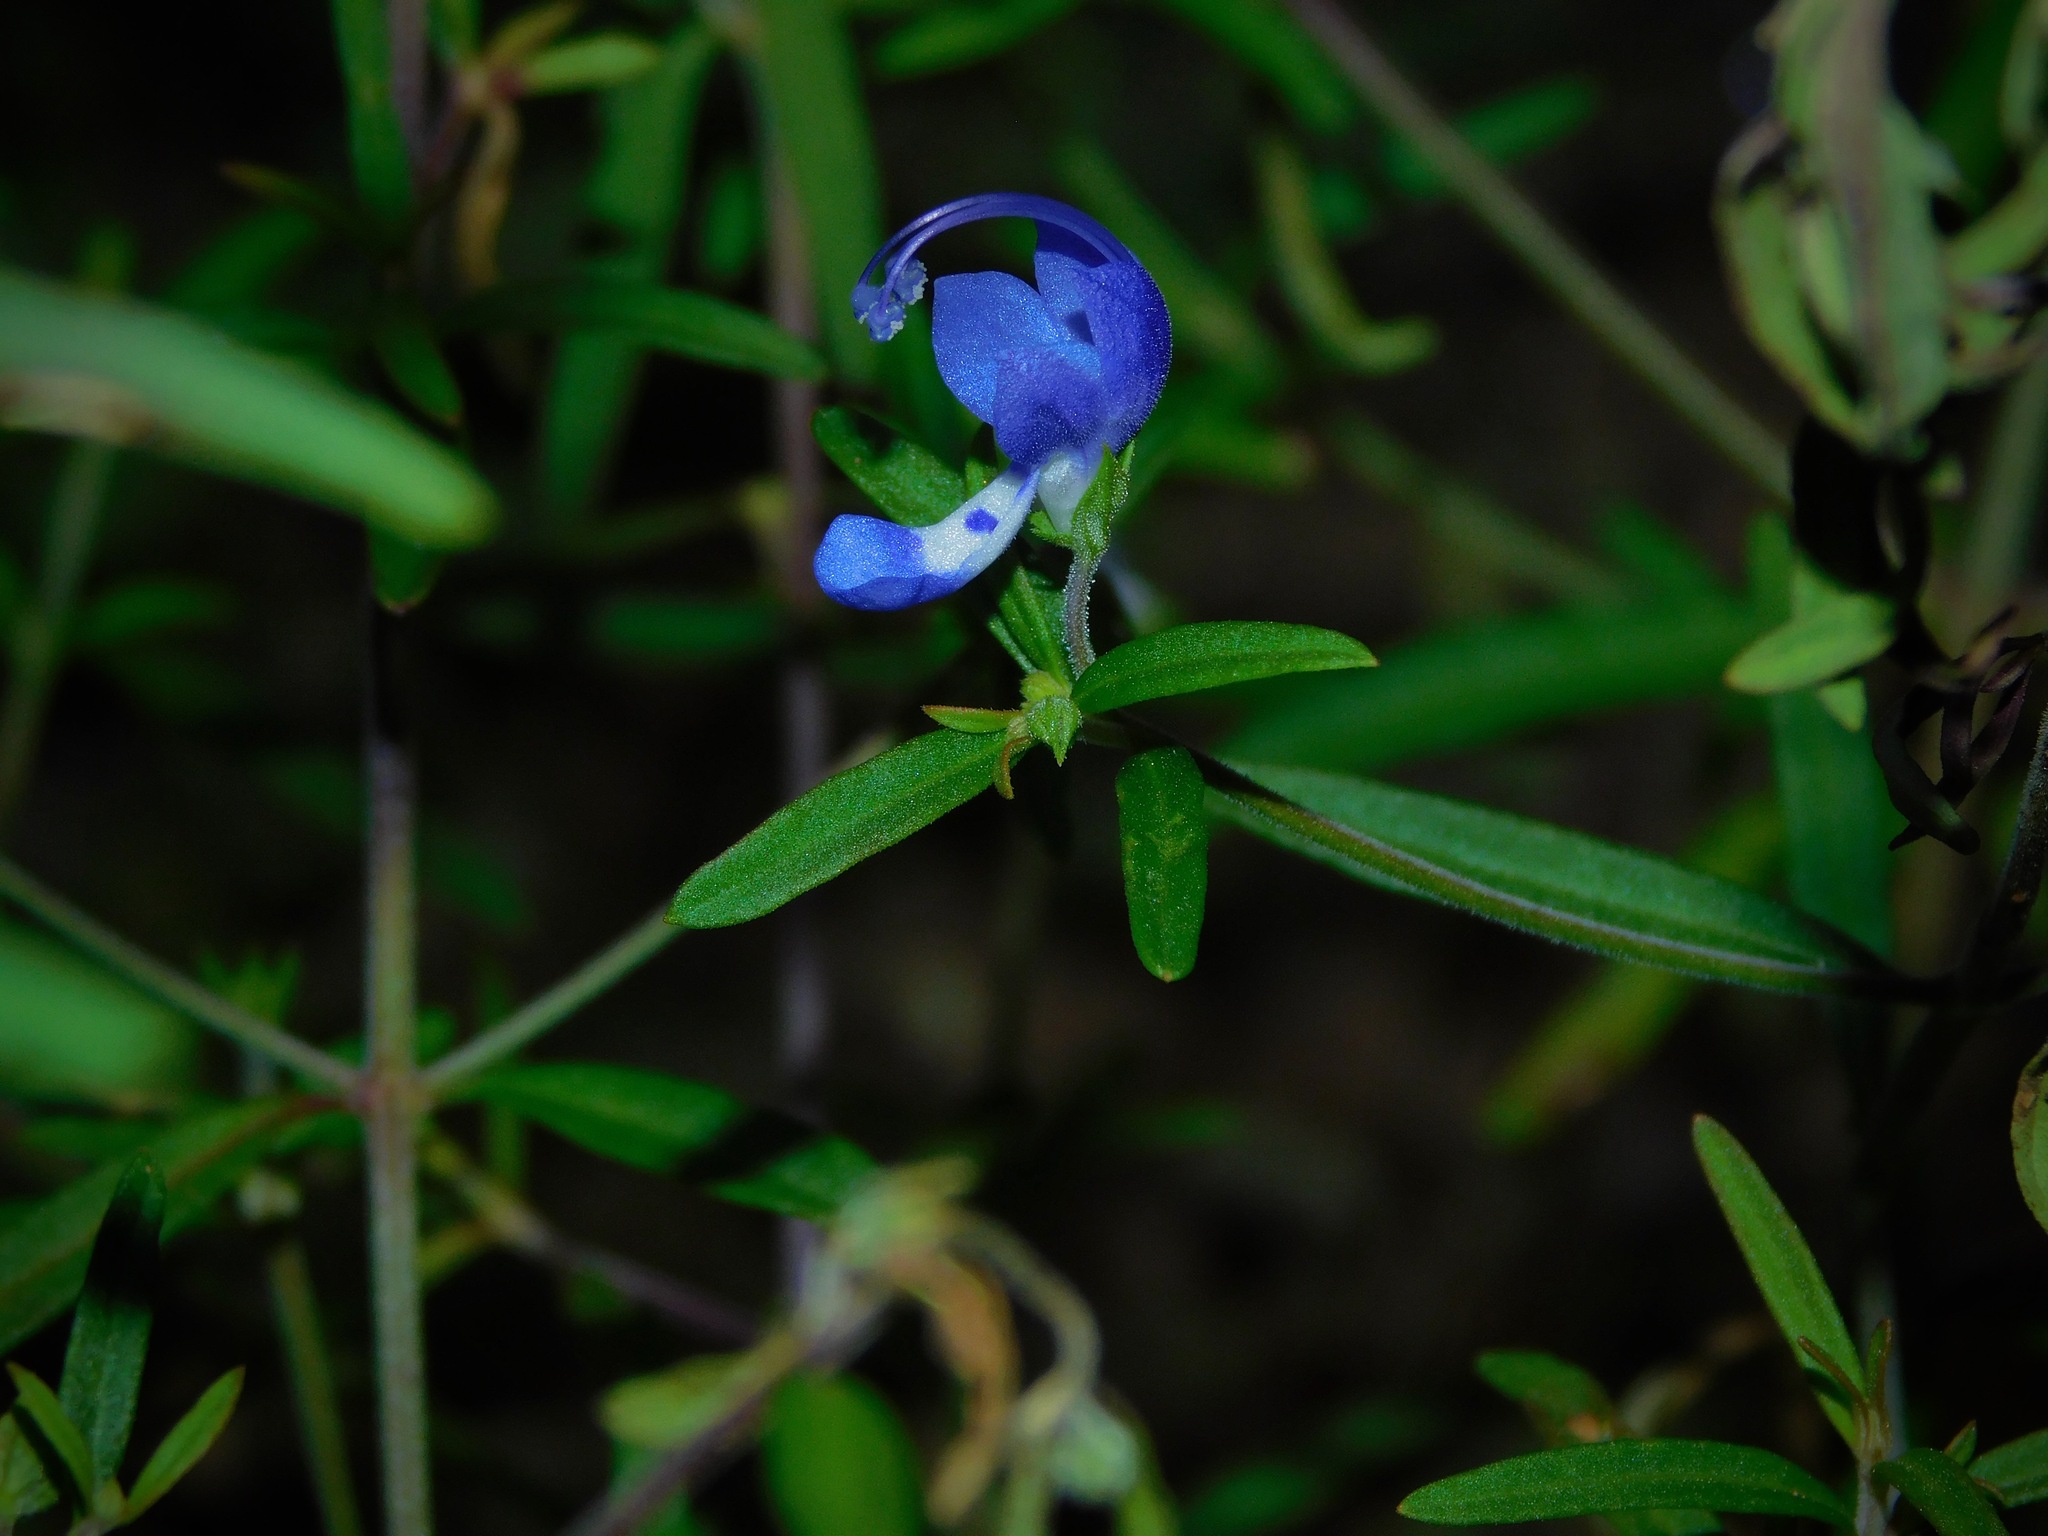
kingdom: Plantae
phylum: Tracheophyta
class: Magnoliopsida
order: Lamiales
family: Lamiaceae
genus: Trichostema
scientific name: Trichostema setaceum
